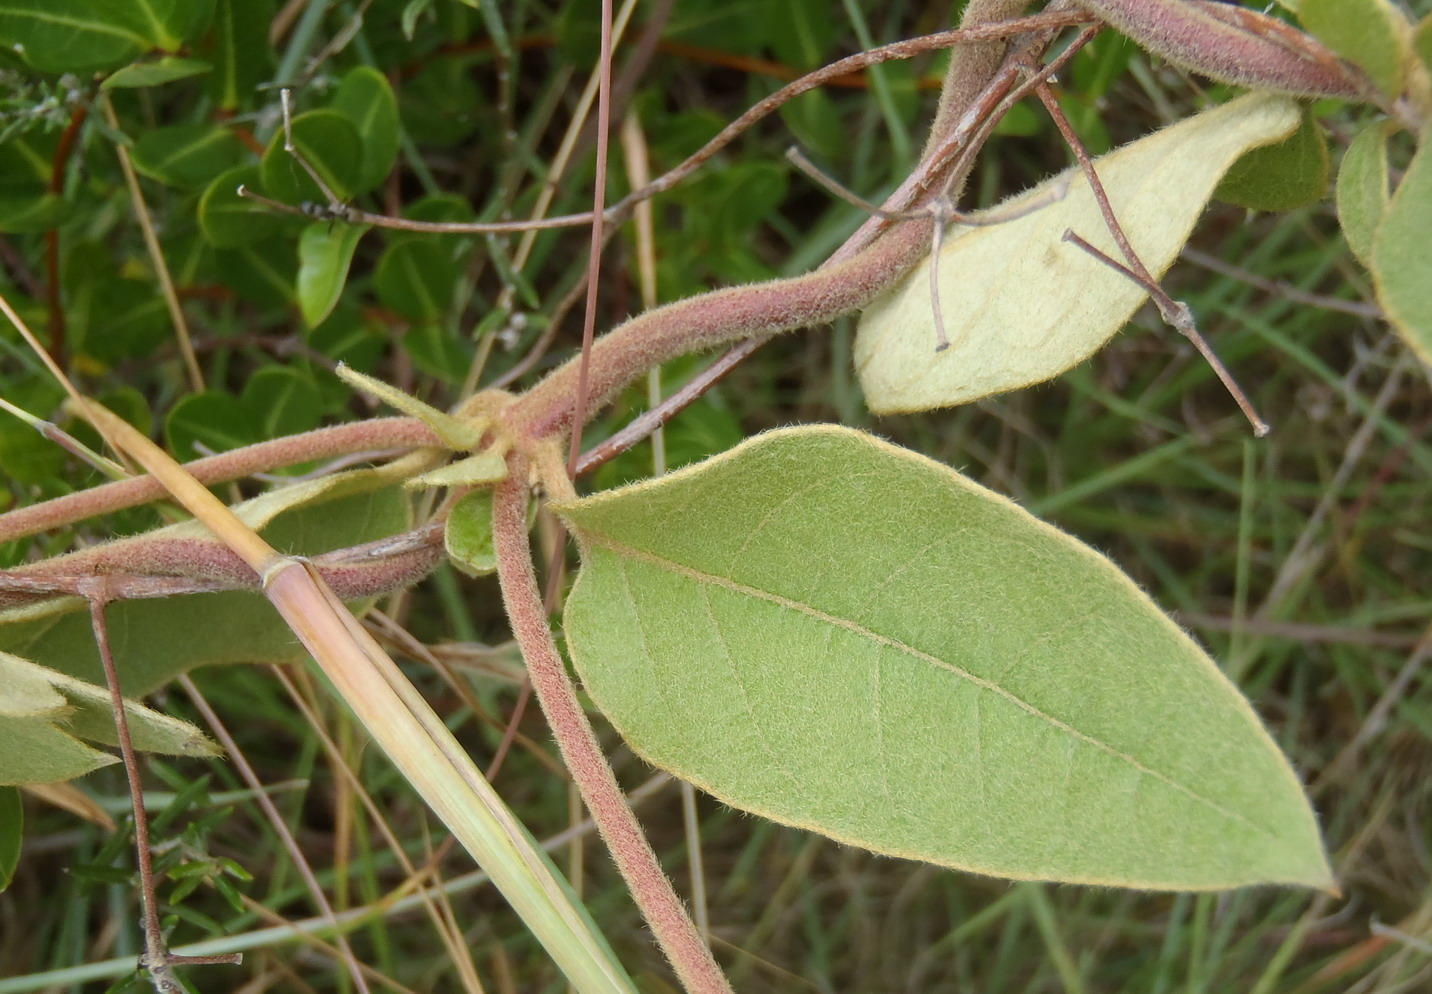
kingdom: Plantae
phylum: Tracheophyta
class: Magnoliopsida
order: Malpighiales
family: Malpighiaceae
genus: Sphedamnocarpus
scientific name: Sphedamnocarpus pruriens
